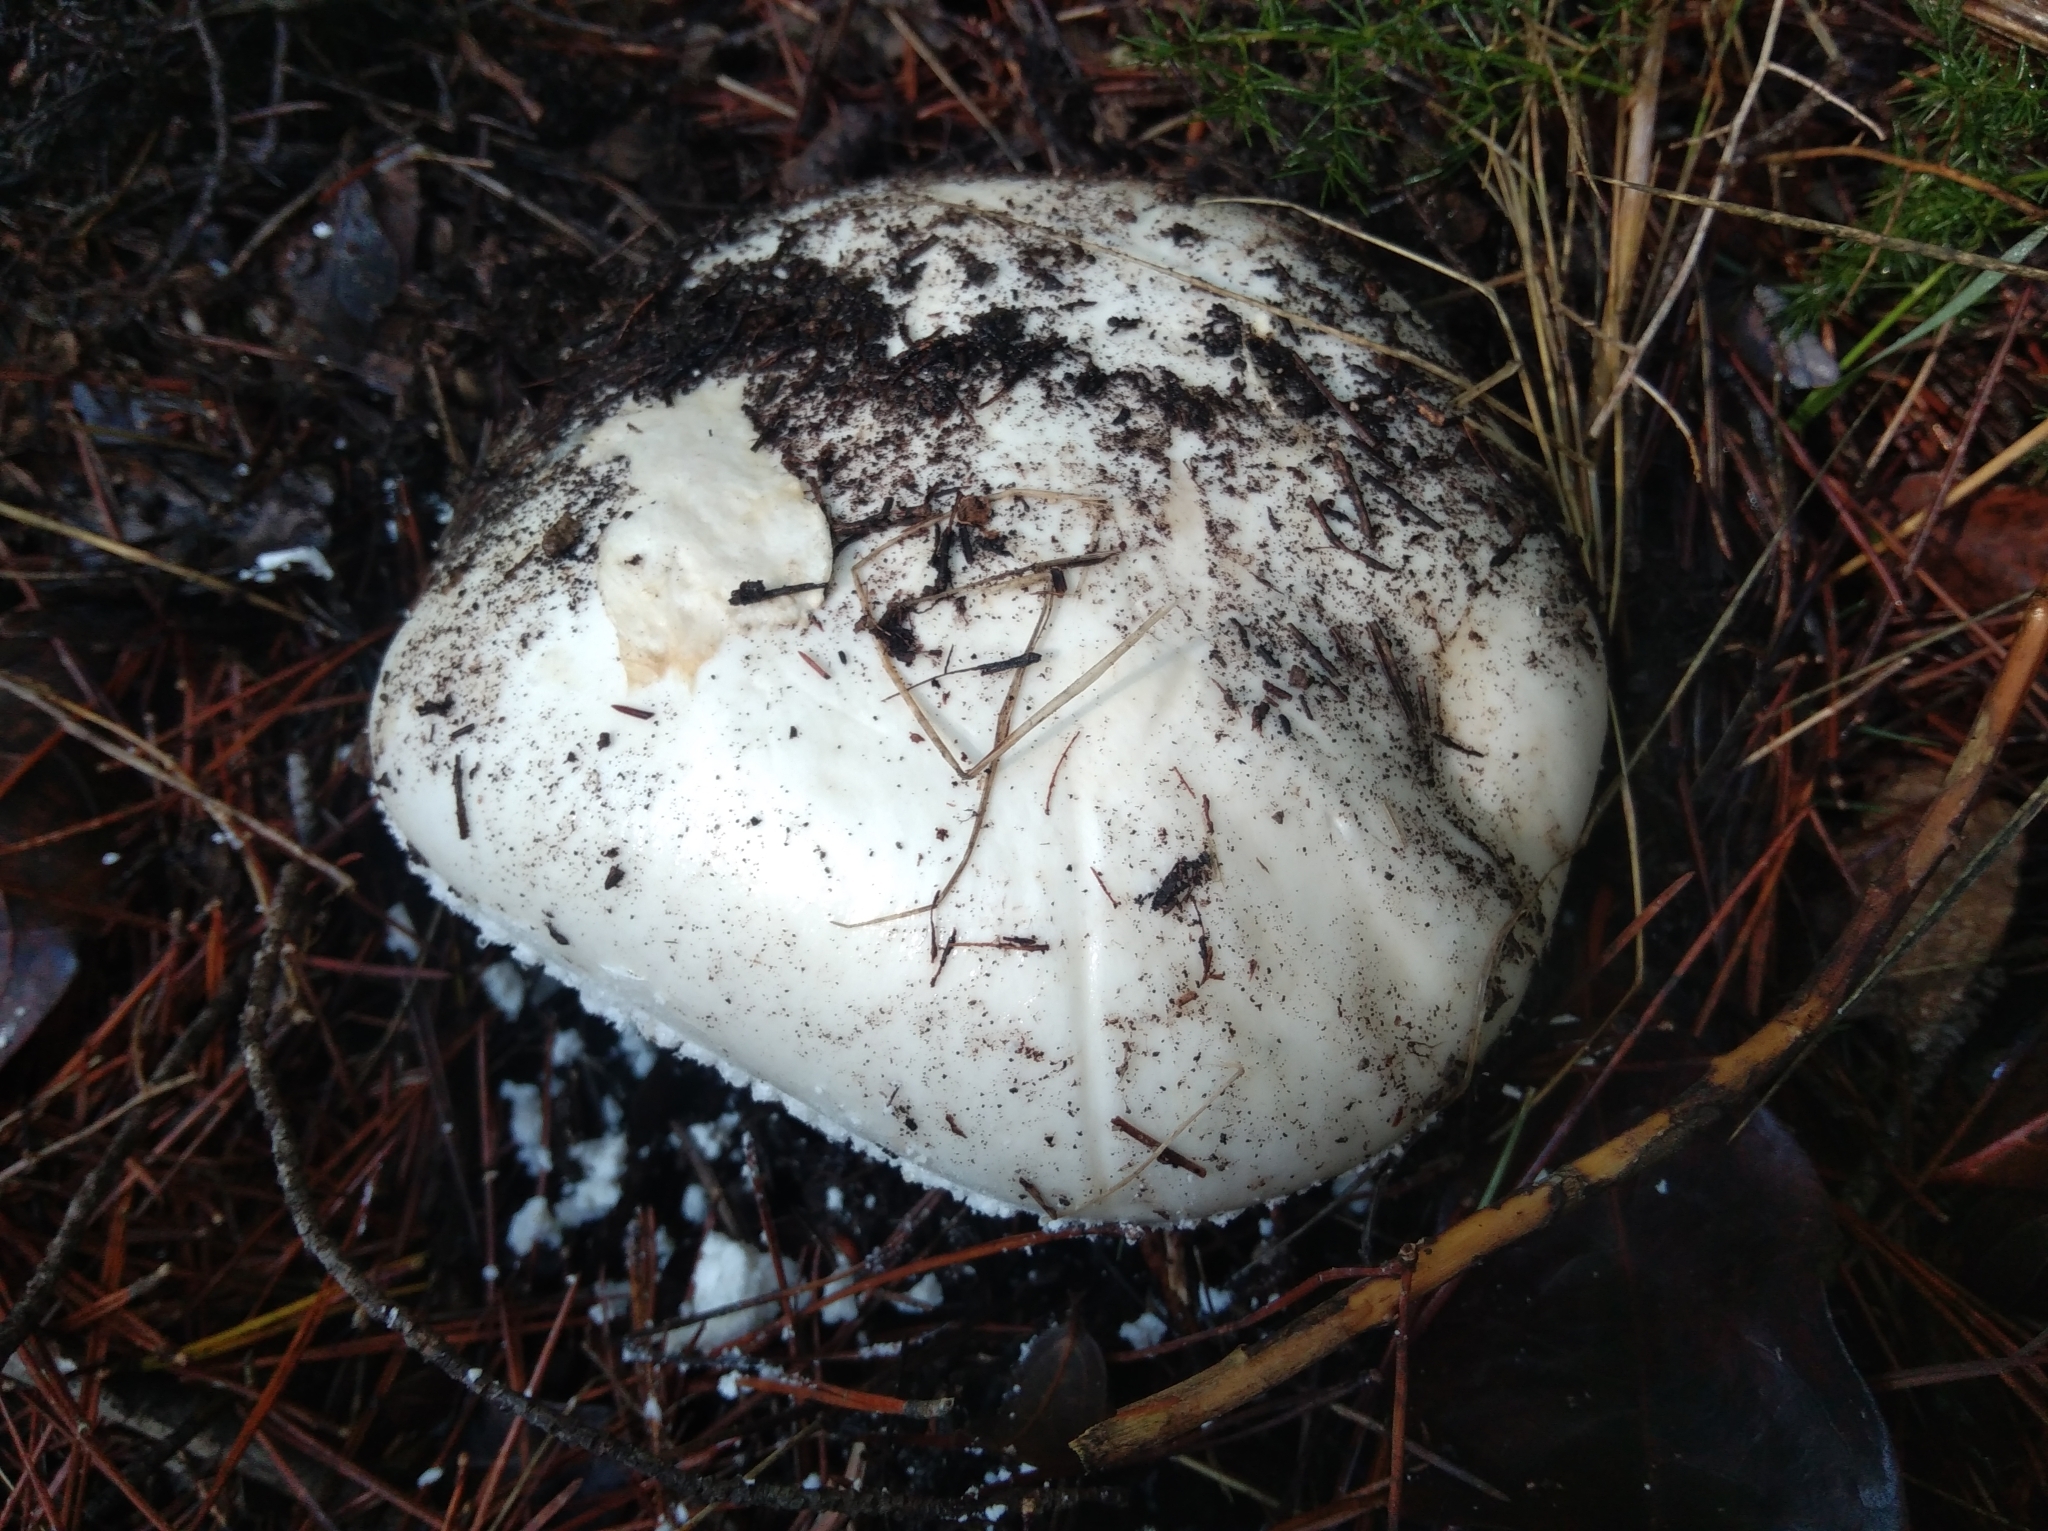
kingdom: Fungi
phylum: Basidiomycota
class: Agaricomycetes
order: Agaricales
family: Amanitaceae
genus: Amanita
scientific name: Amanita ovoidea
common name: Bearded amanita
